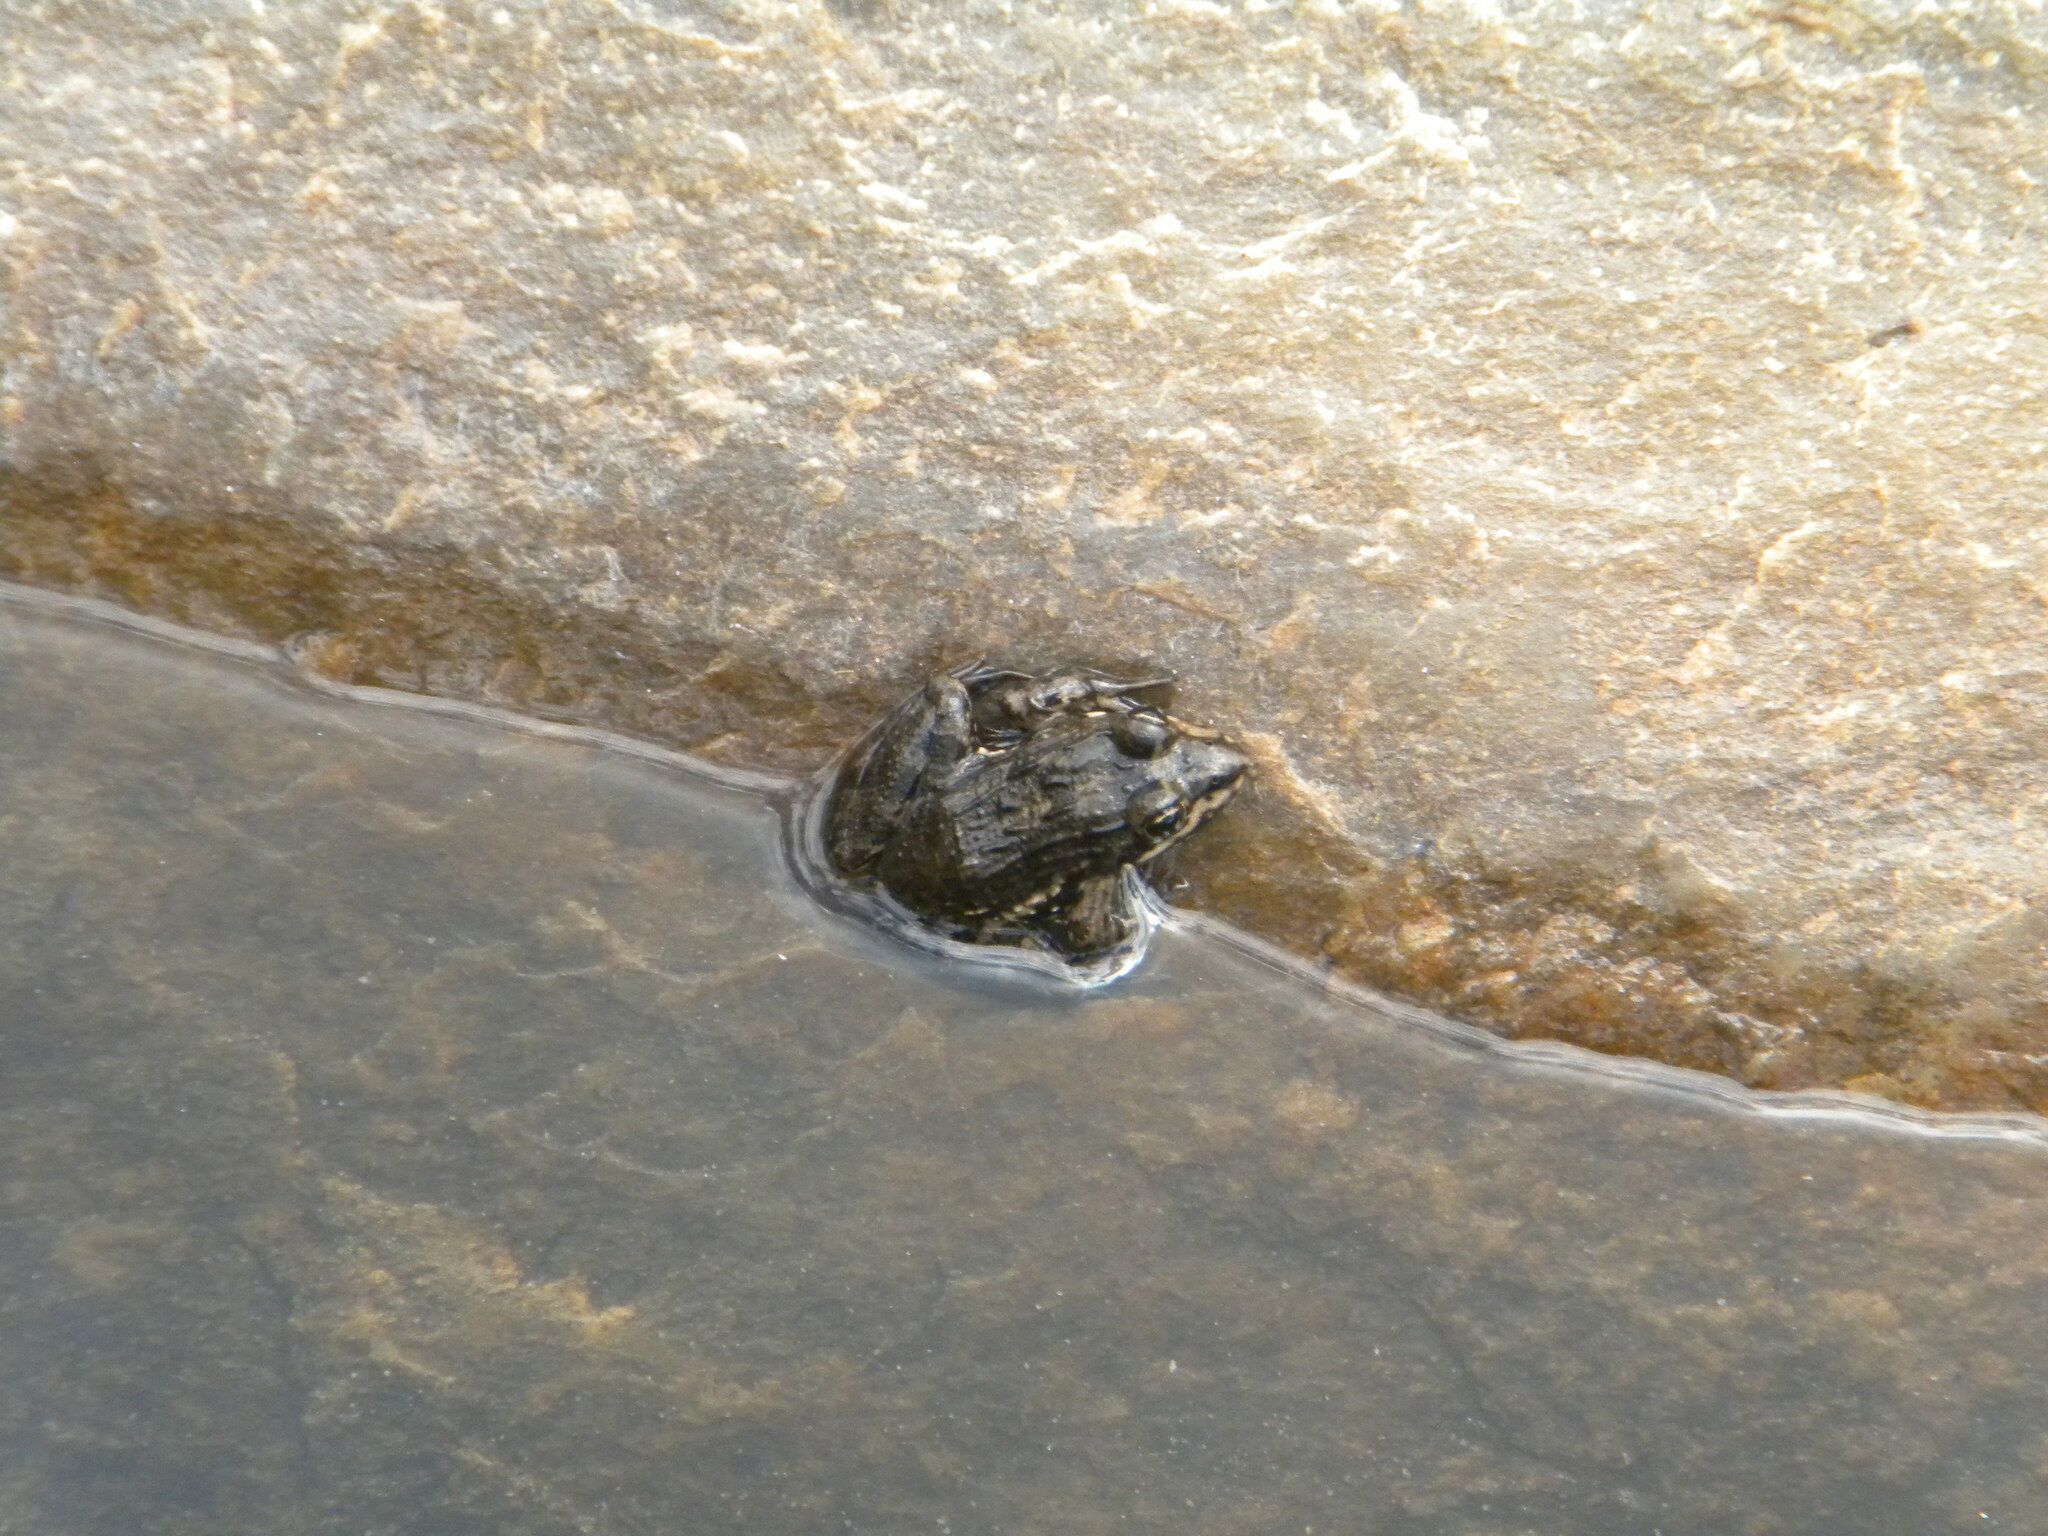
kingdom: Animalia
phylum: Chordata
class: Amphibia
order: Anura
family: Pyxicephalidae
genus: Amietia
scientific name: Amietia fuscigula
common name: Cape rana
